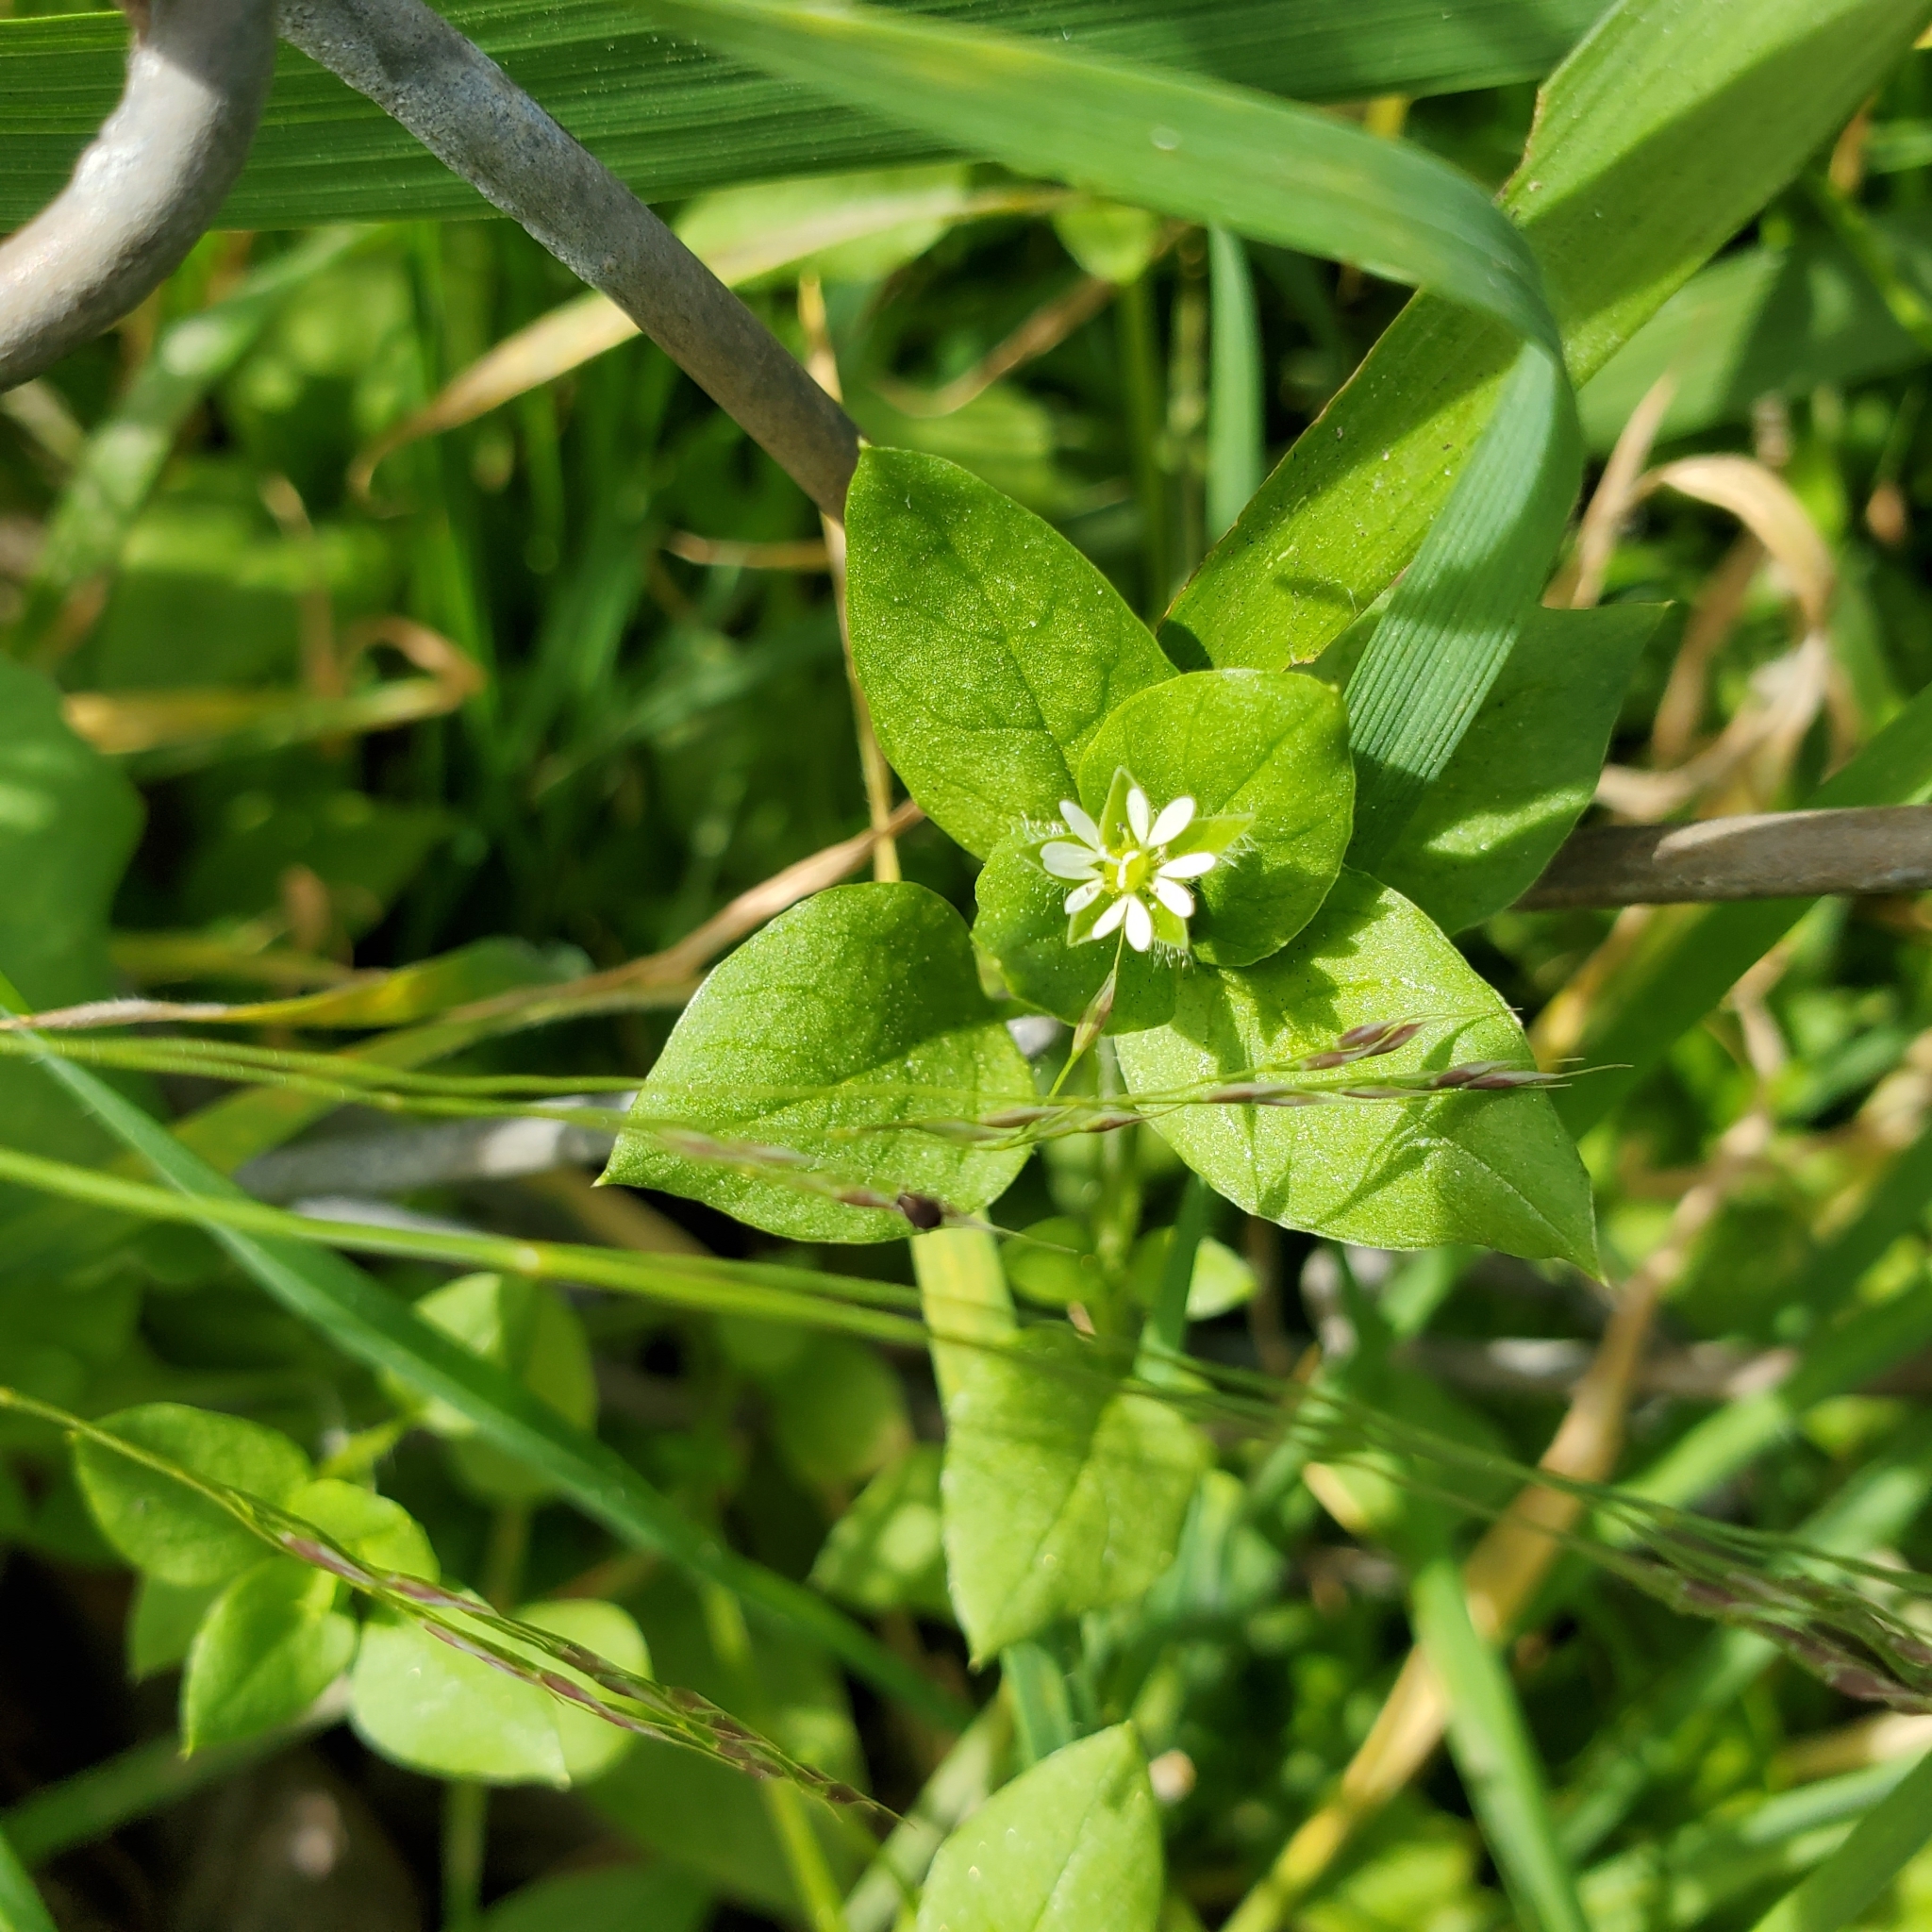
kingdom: Plantae
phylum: Tracheophyta
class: Magnoliopsida
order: Caryophyllales
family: Caryophyllaceae
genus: Stellaria
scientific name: Stellaria media
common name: Common chickweed
